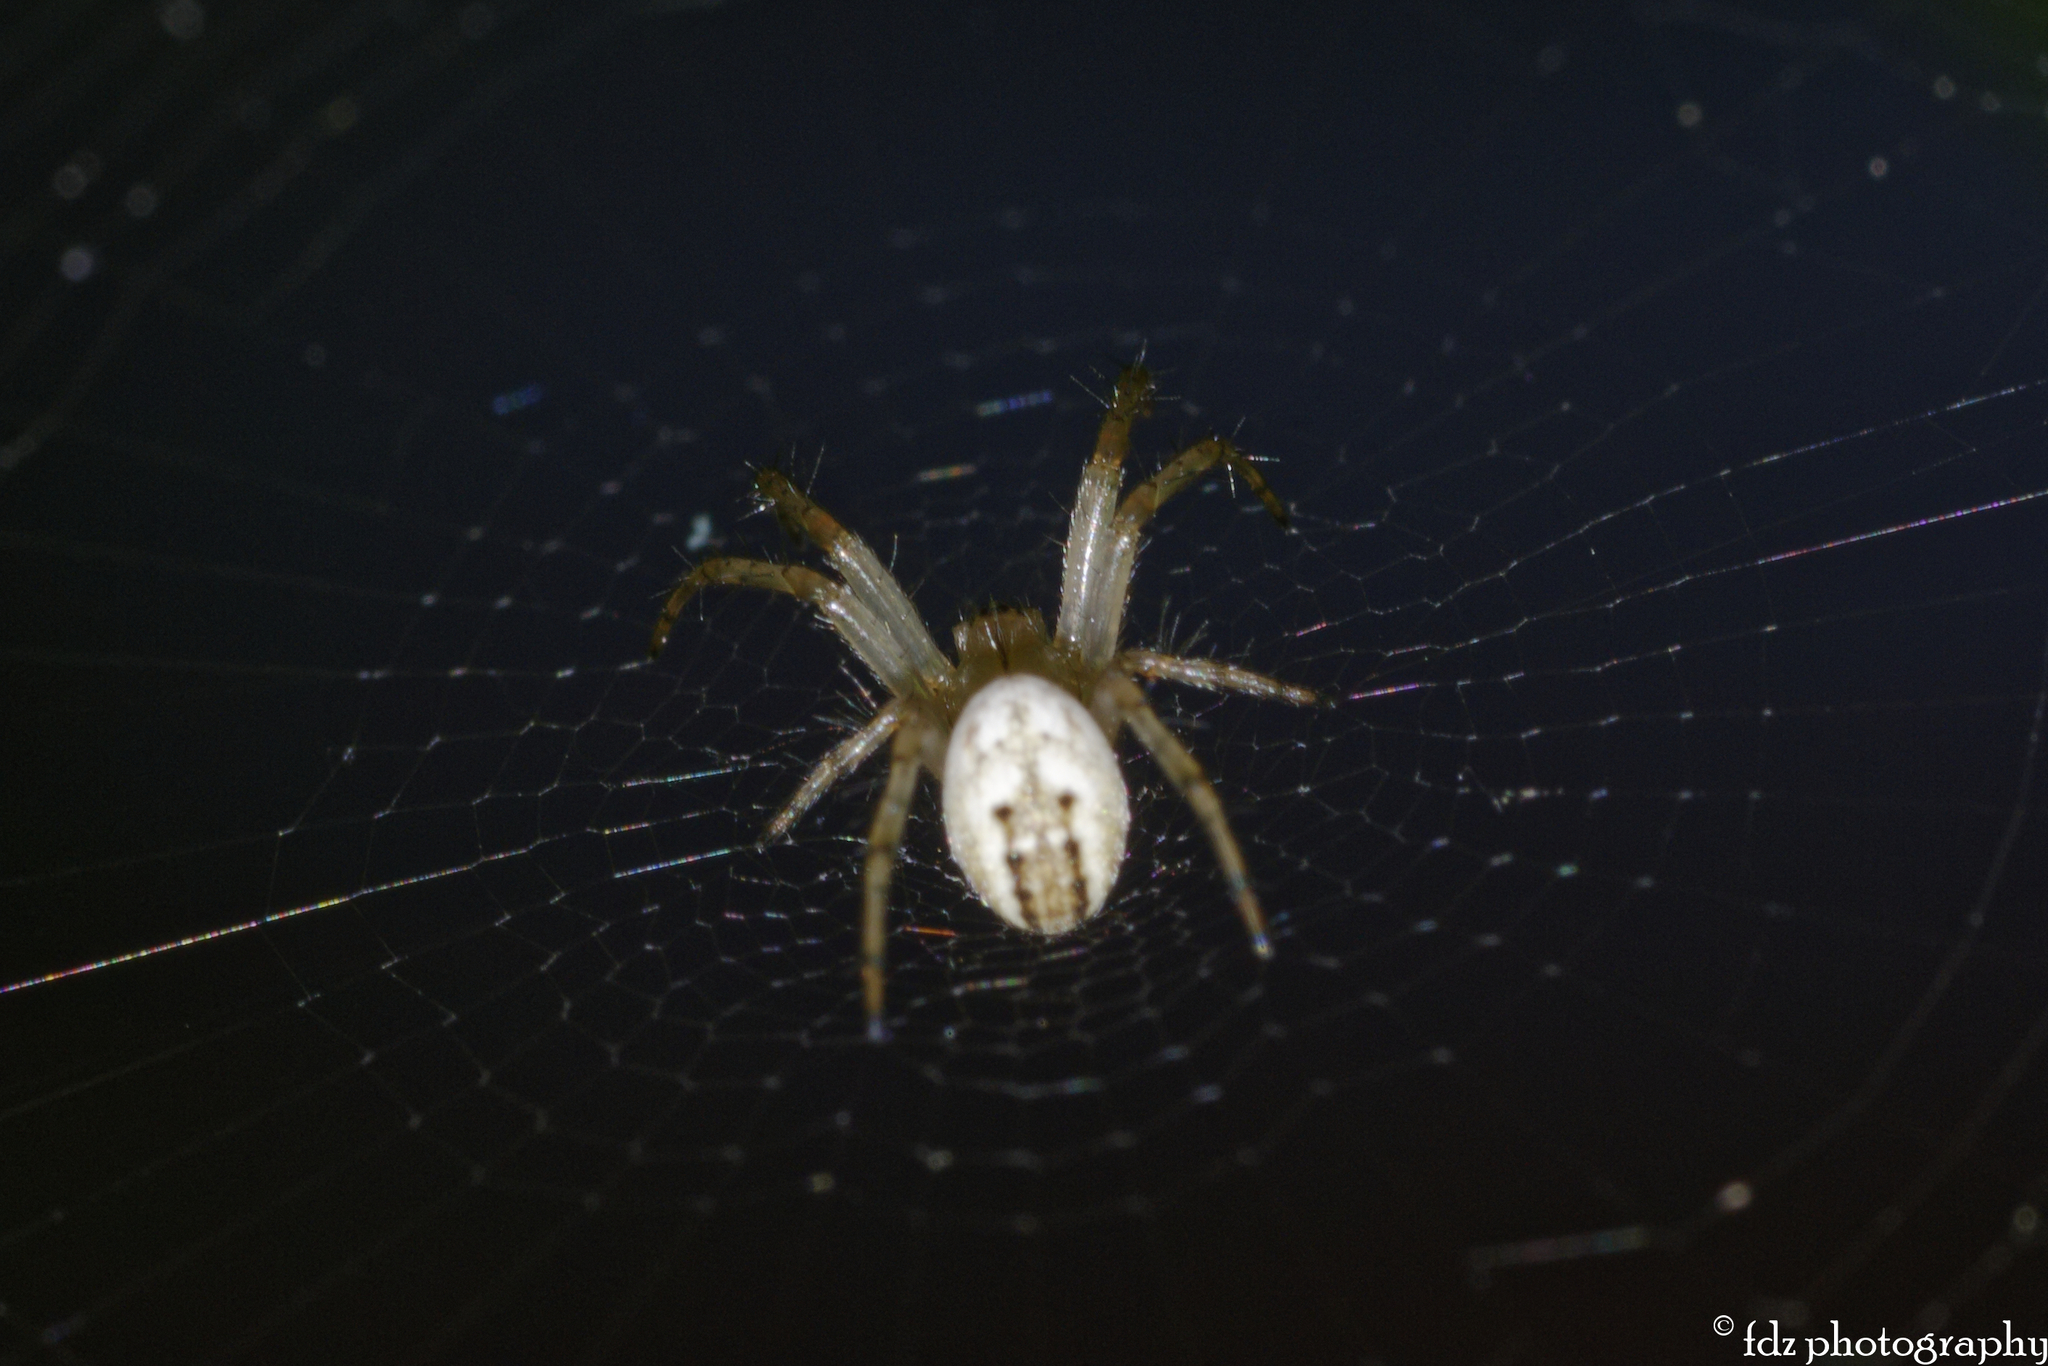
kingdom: Animalia
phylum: Arthropoda
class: Arachnida
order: Araneae
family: Araneidae
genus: Mangora
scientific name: Mangora acalypha
